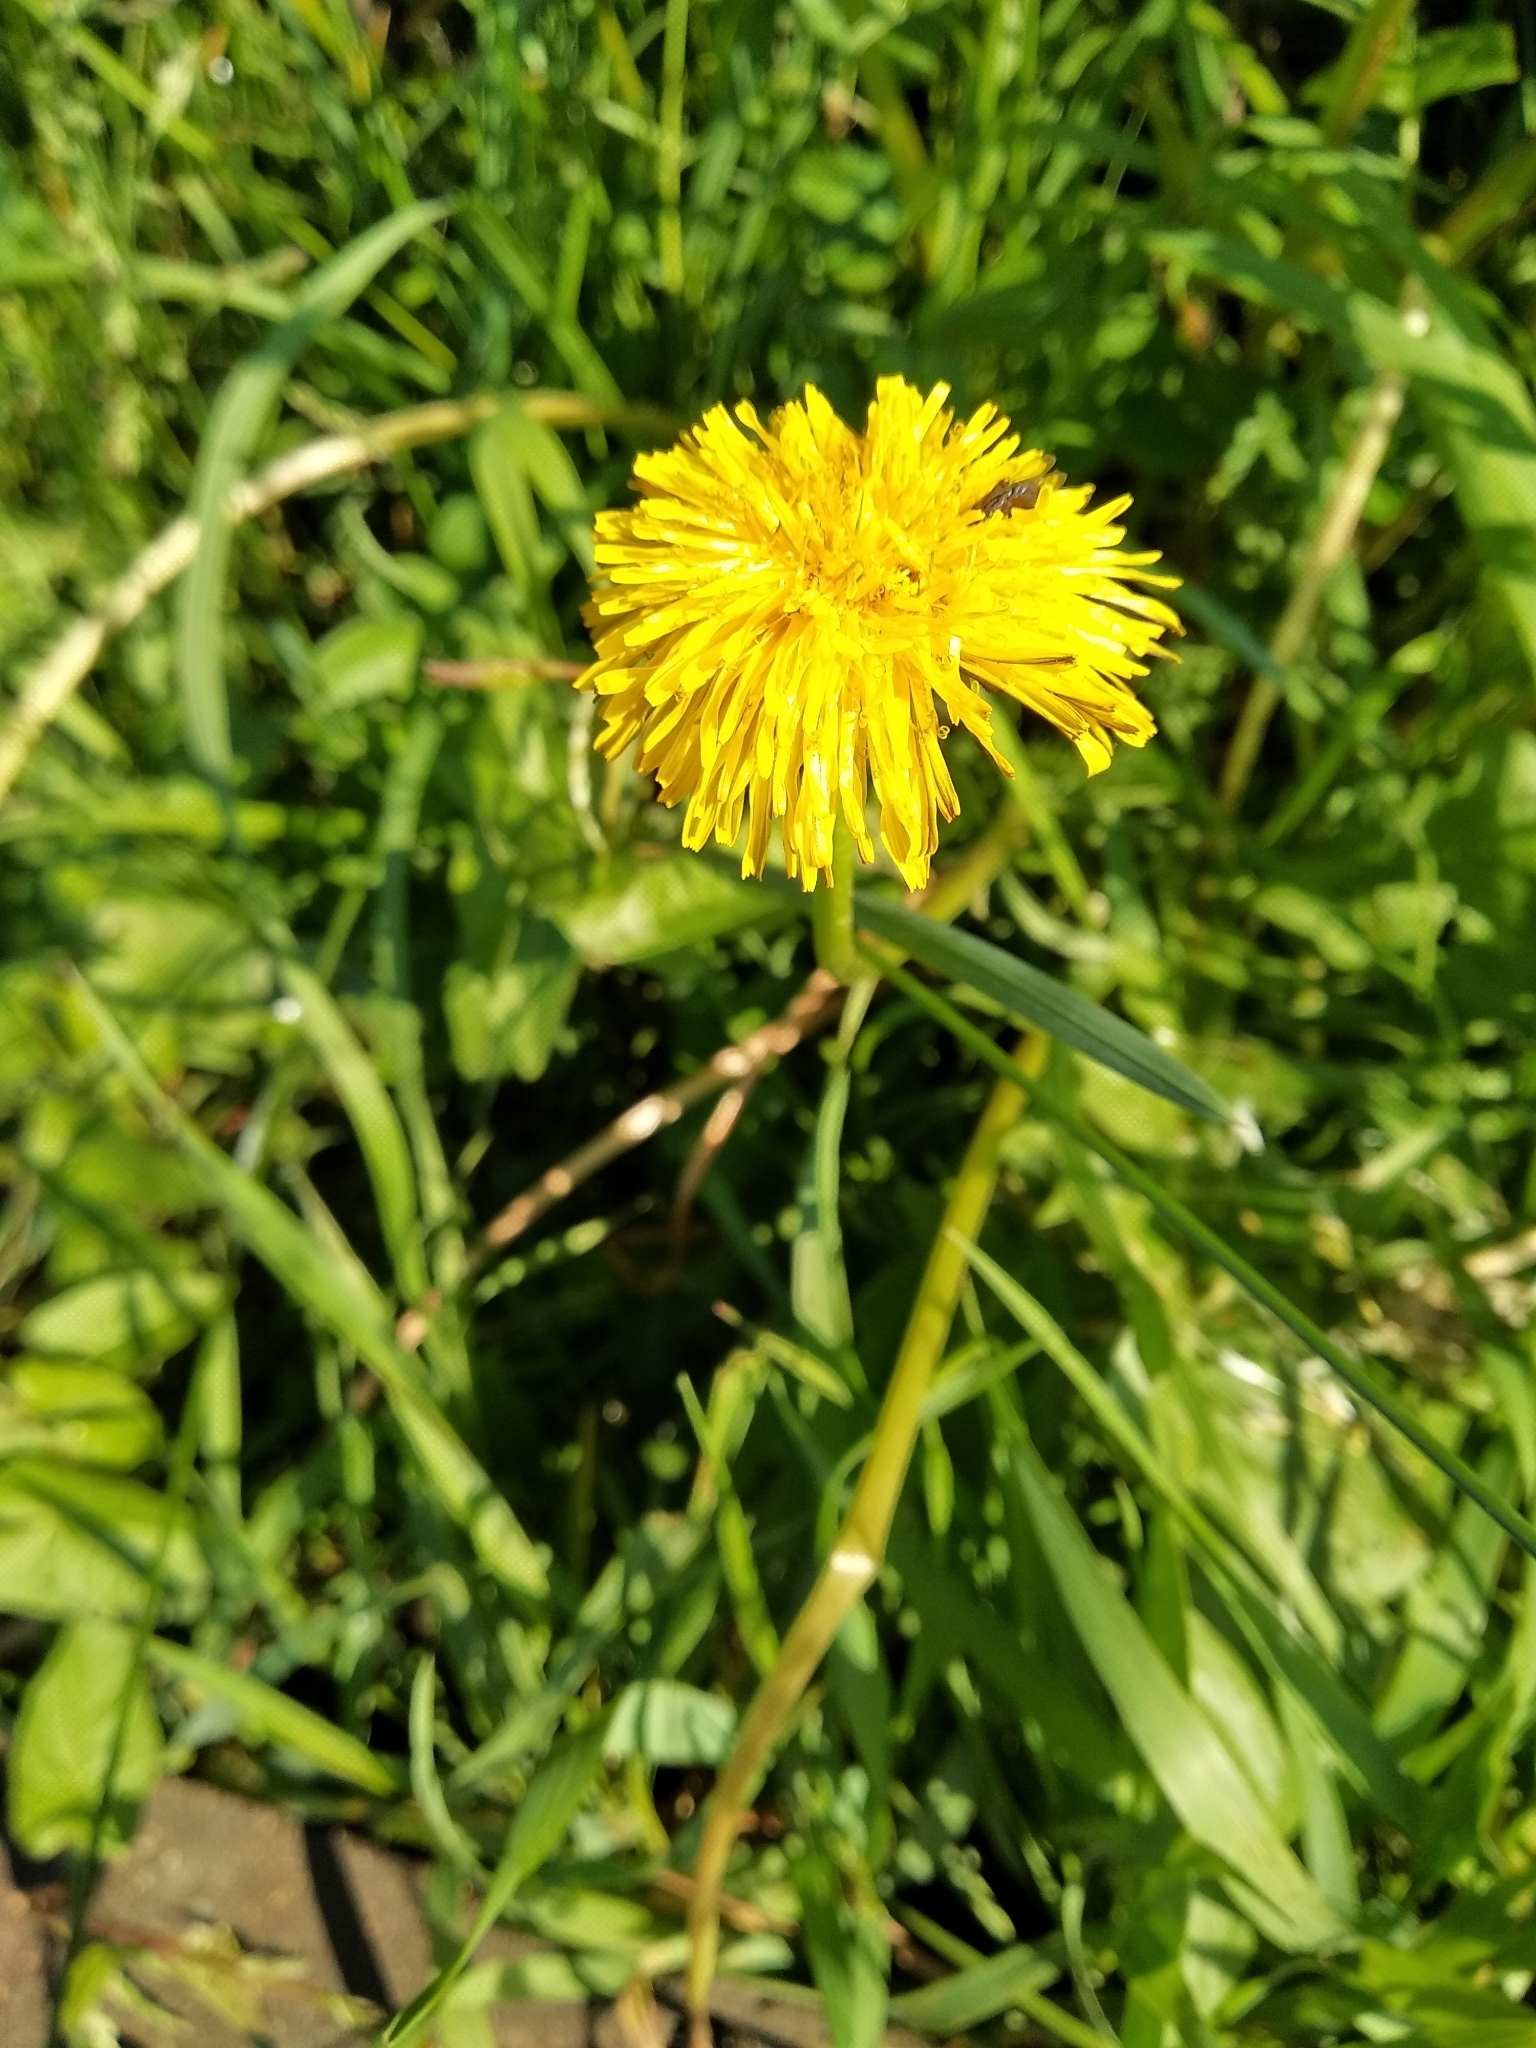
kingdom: Plantae
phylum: Tracheophyta
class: Magnoliopsida
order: Asterales
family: Asteraceae
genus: Taraxacum
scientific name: Taraxacum officinale
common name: Common dandelion
